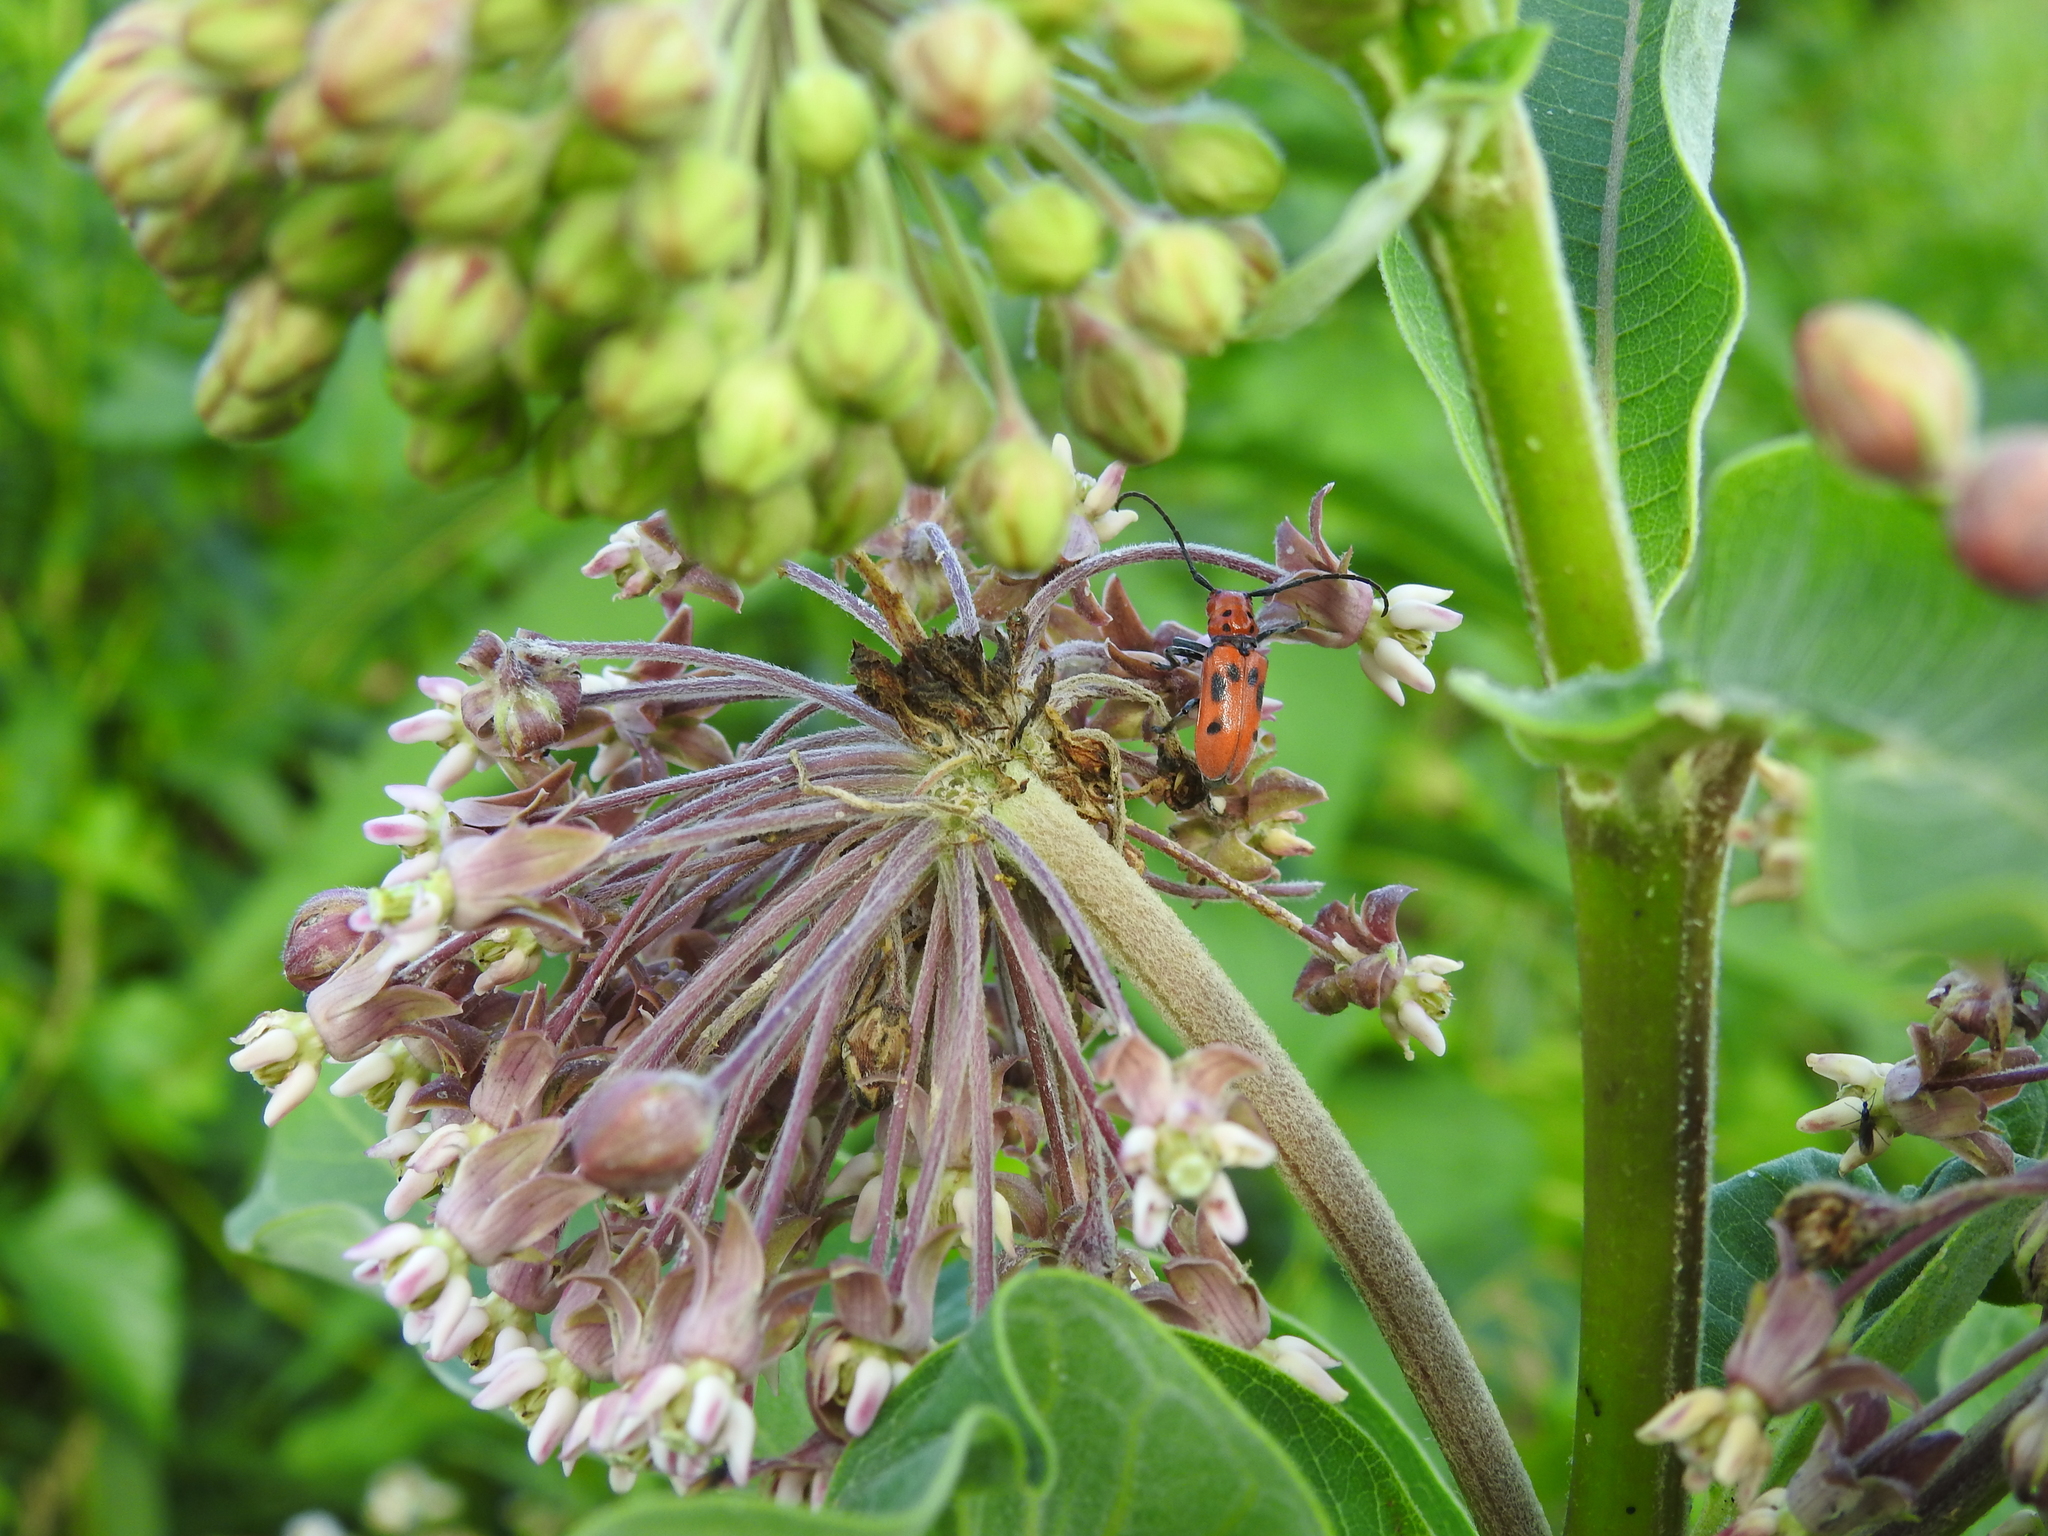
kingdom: Animalia
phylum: Arthropoda
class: Insecta
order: Coleoptera
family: Cerambycidae
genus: Tetraopes
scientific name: Tetraopes tetrophthalmus
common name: Red milkweed beetle
